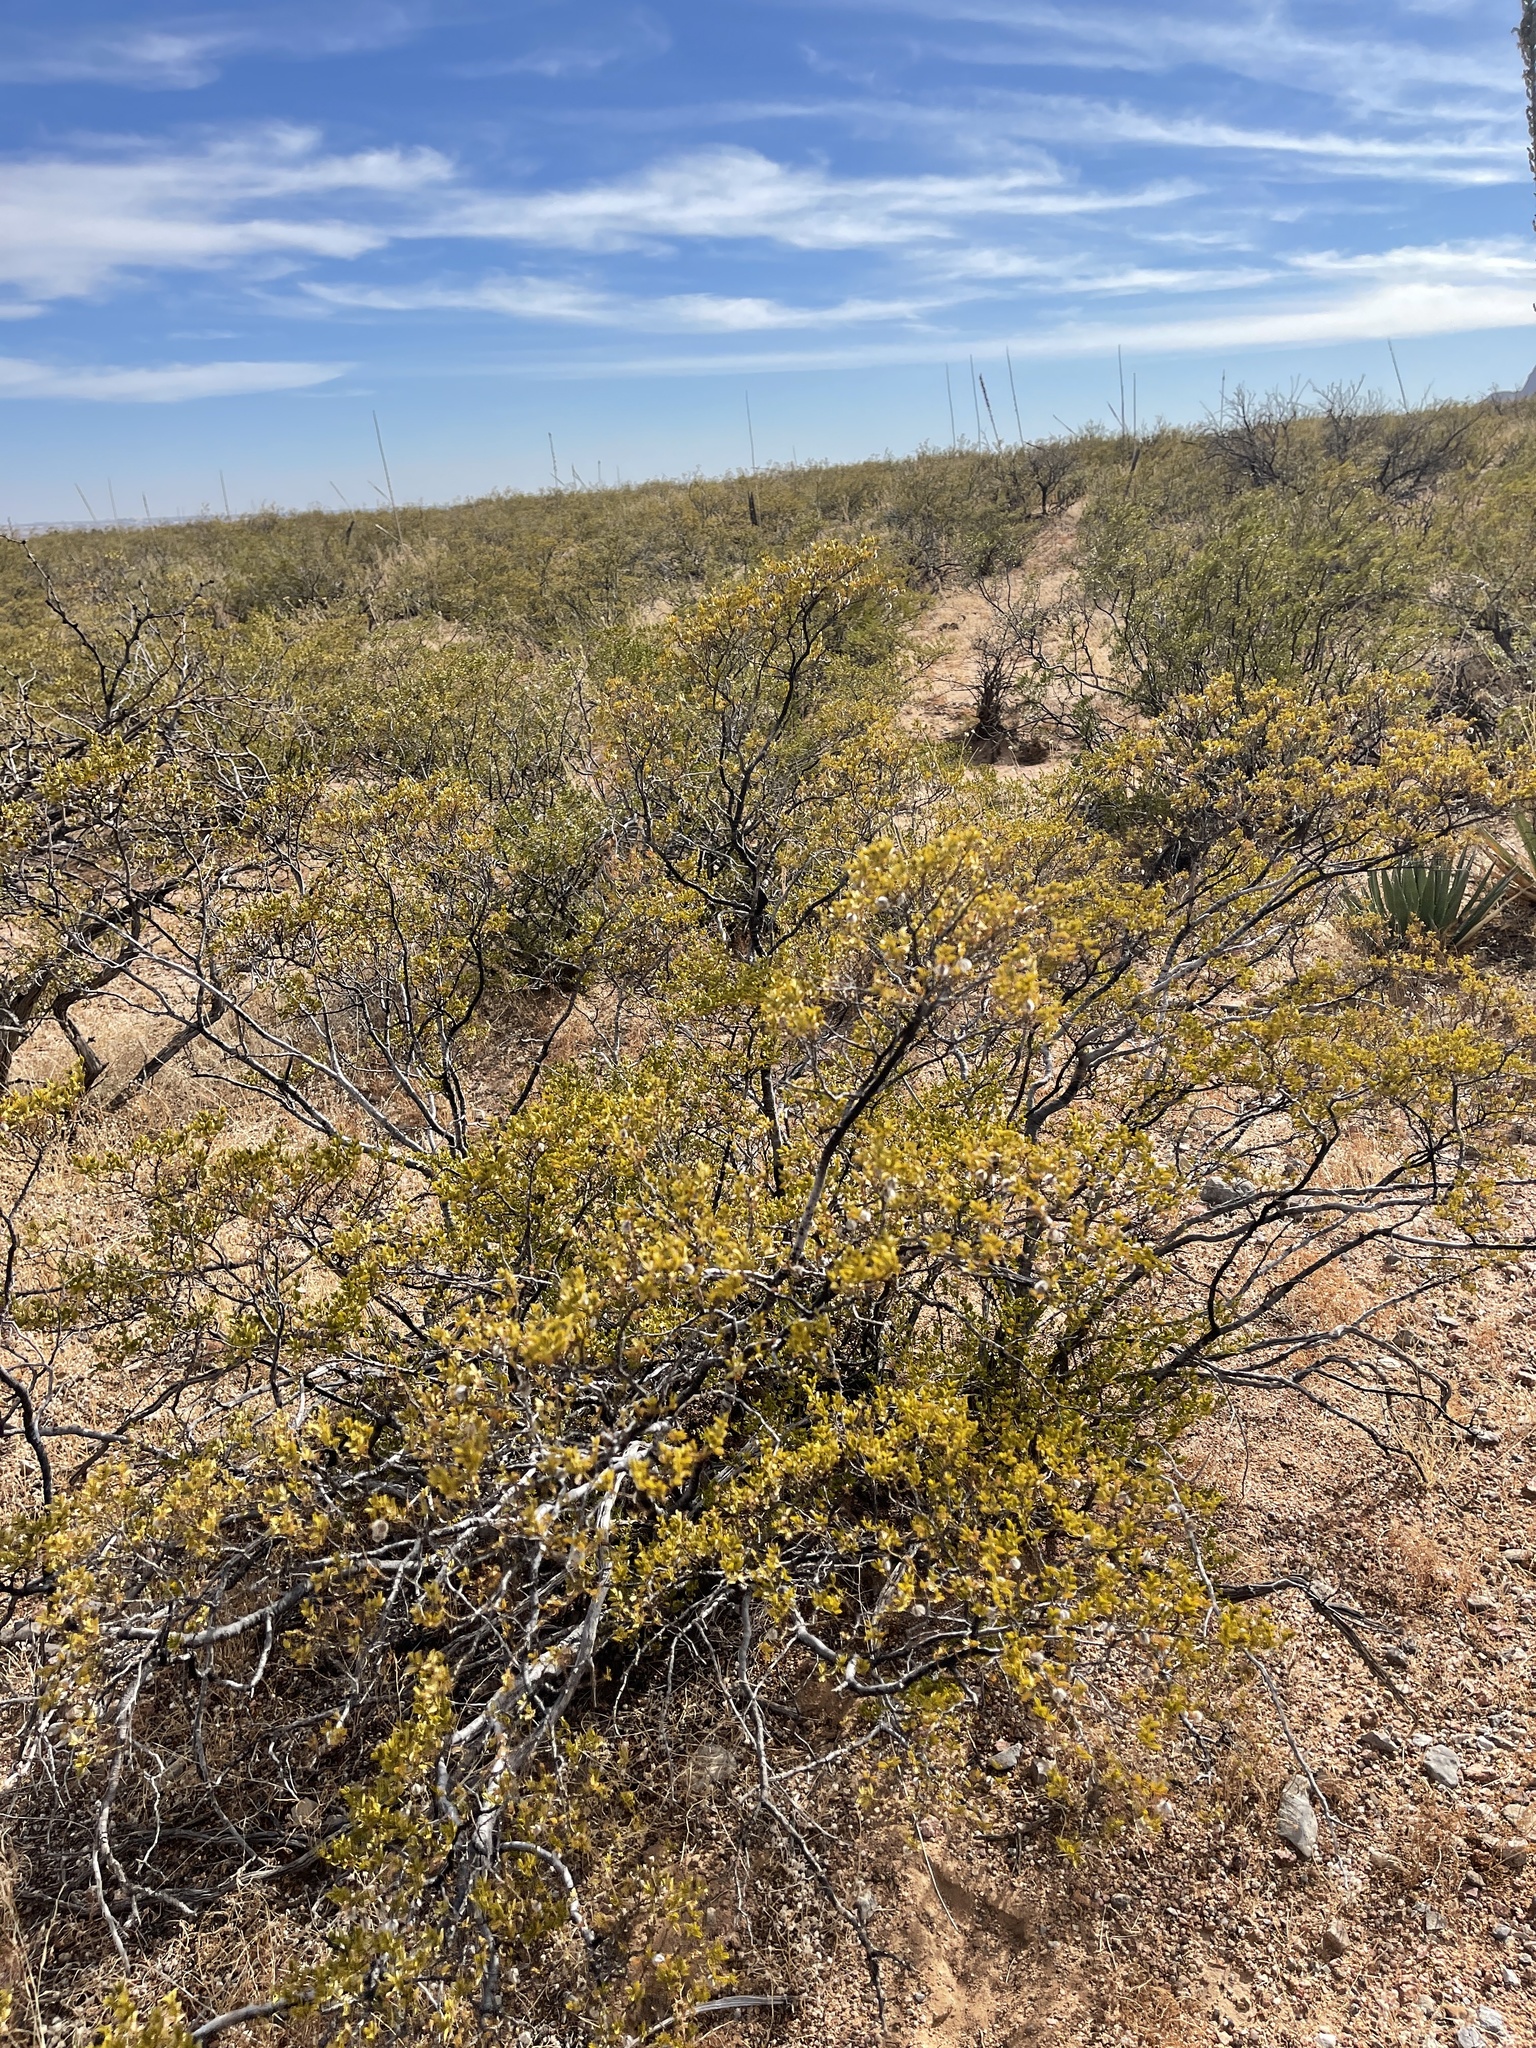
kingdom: Plantae
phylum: Tracheophyta
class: Magnoliopsida
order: Zygophyllales
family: Zygophyllaceae
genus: Larrea
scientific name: Larrea tridentata
